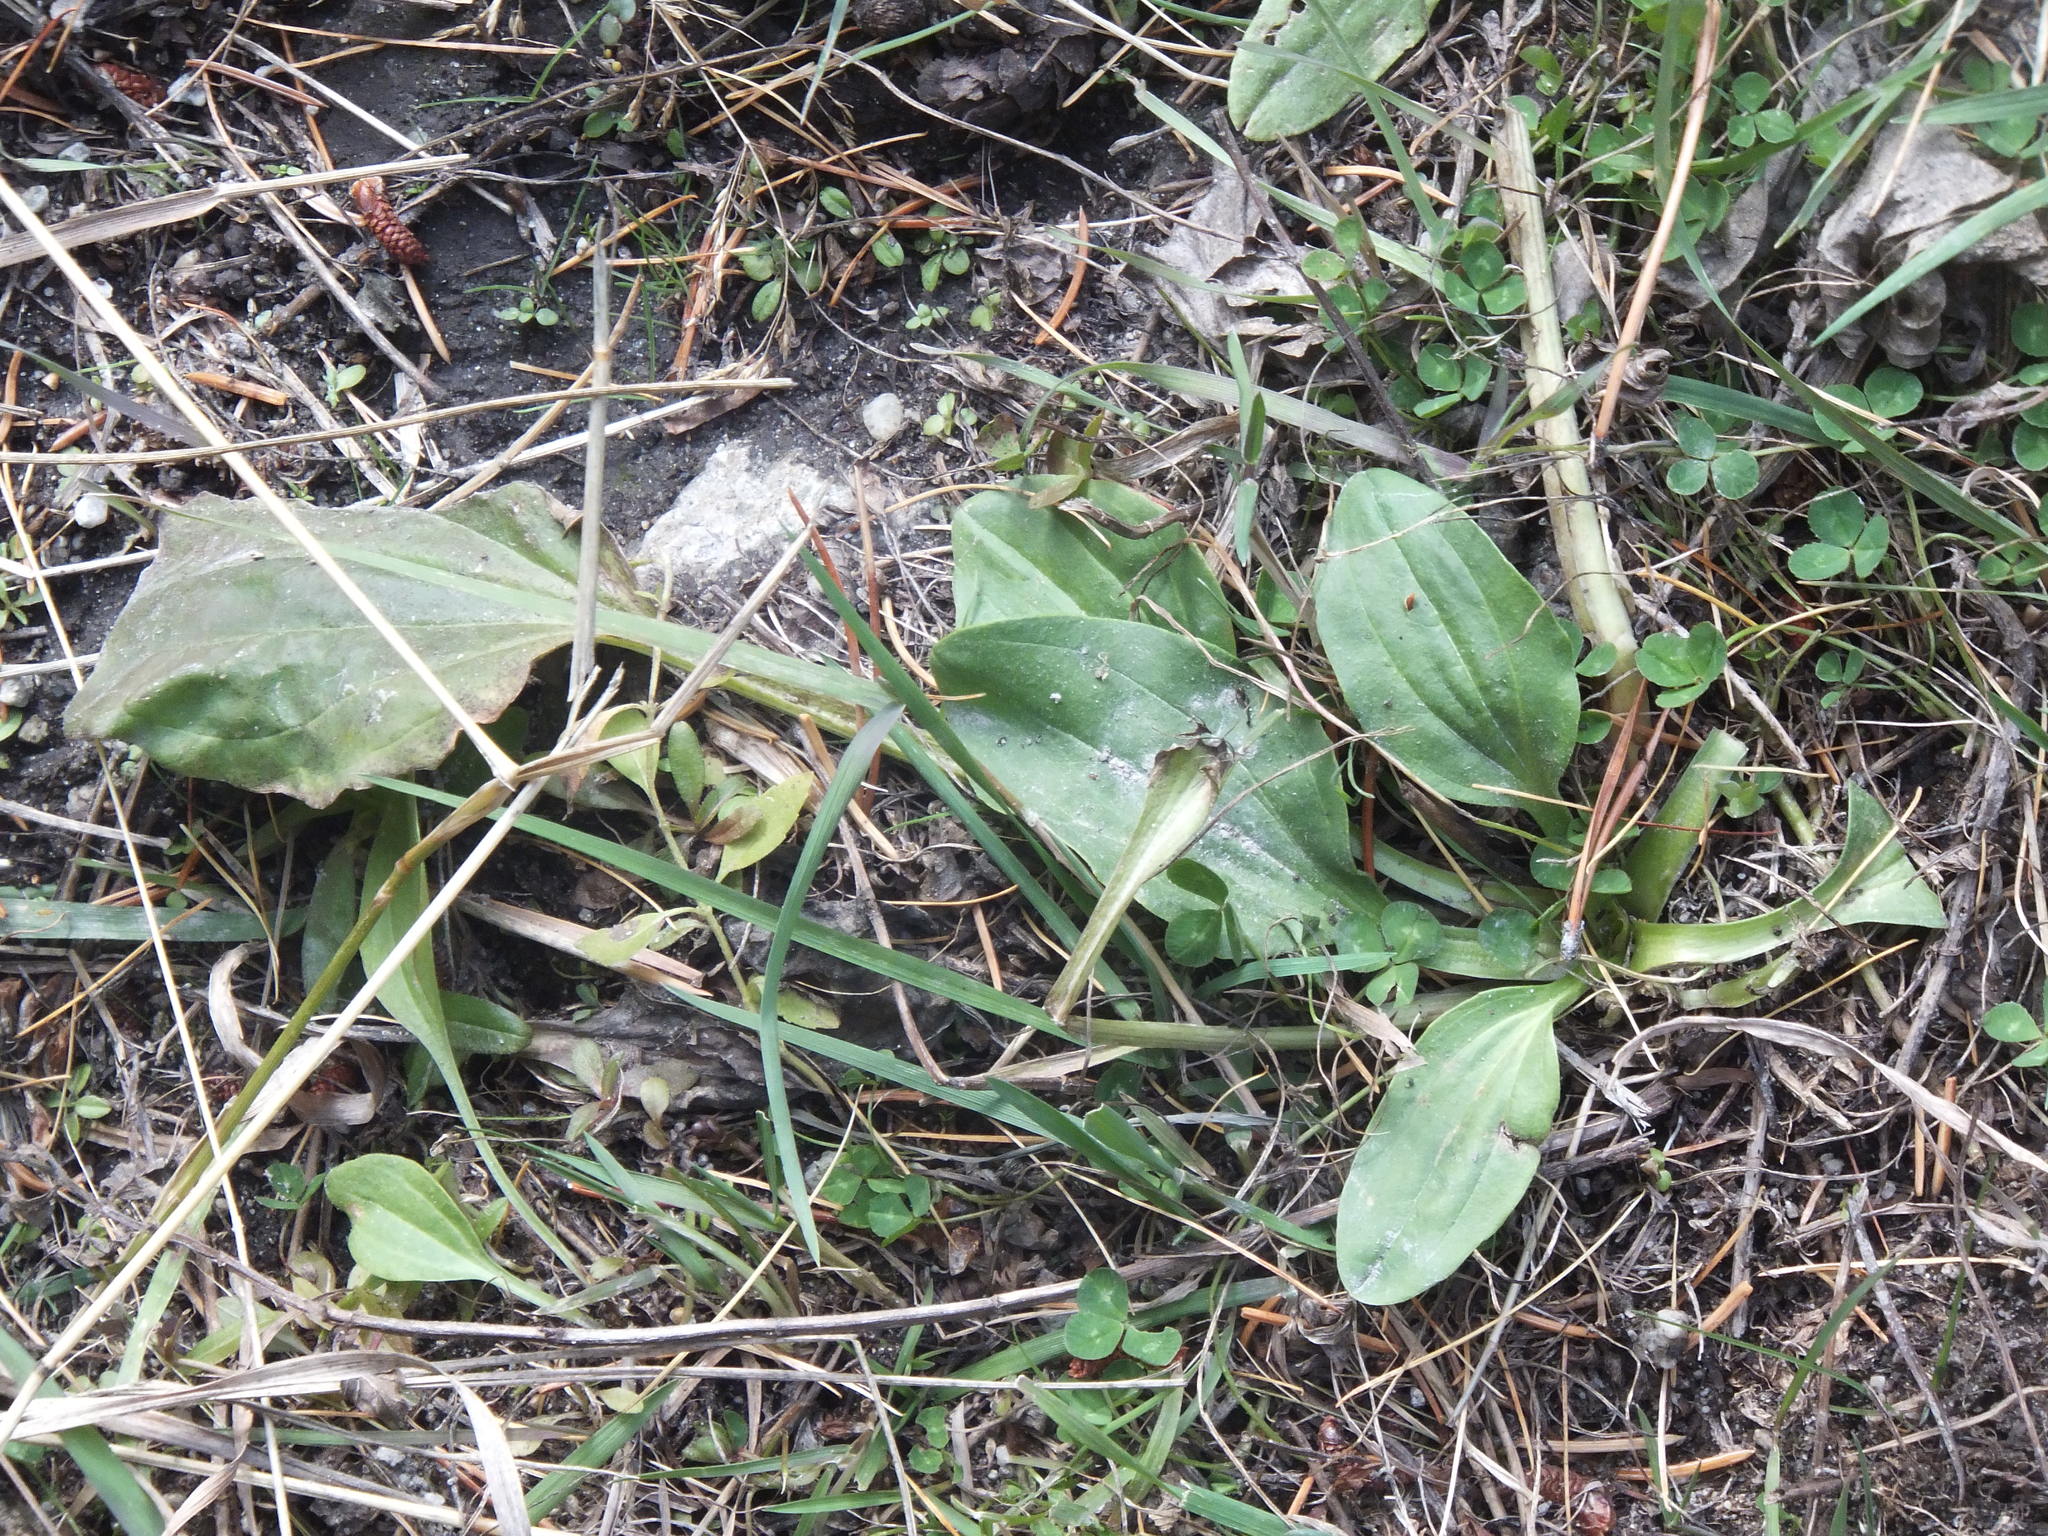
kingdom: Plantae
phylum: Tracheophyta
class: Magnoliopsida
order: Lamiales
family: Plantaginaceae
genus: Plantago
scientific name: Plantago major
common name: Common plantain
